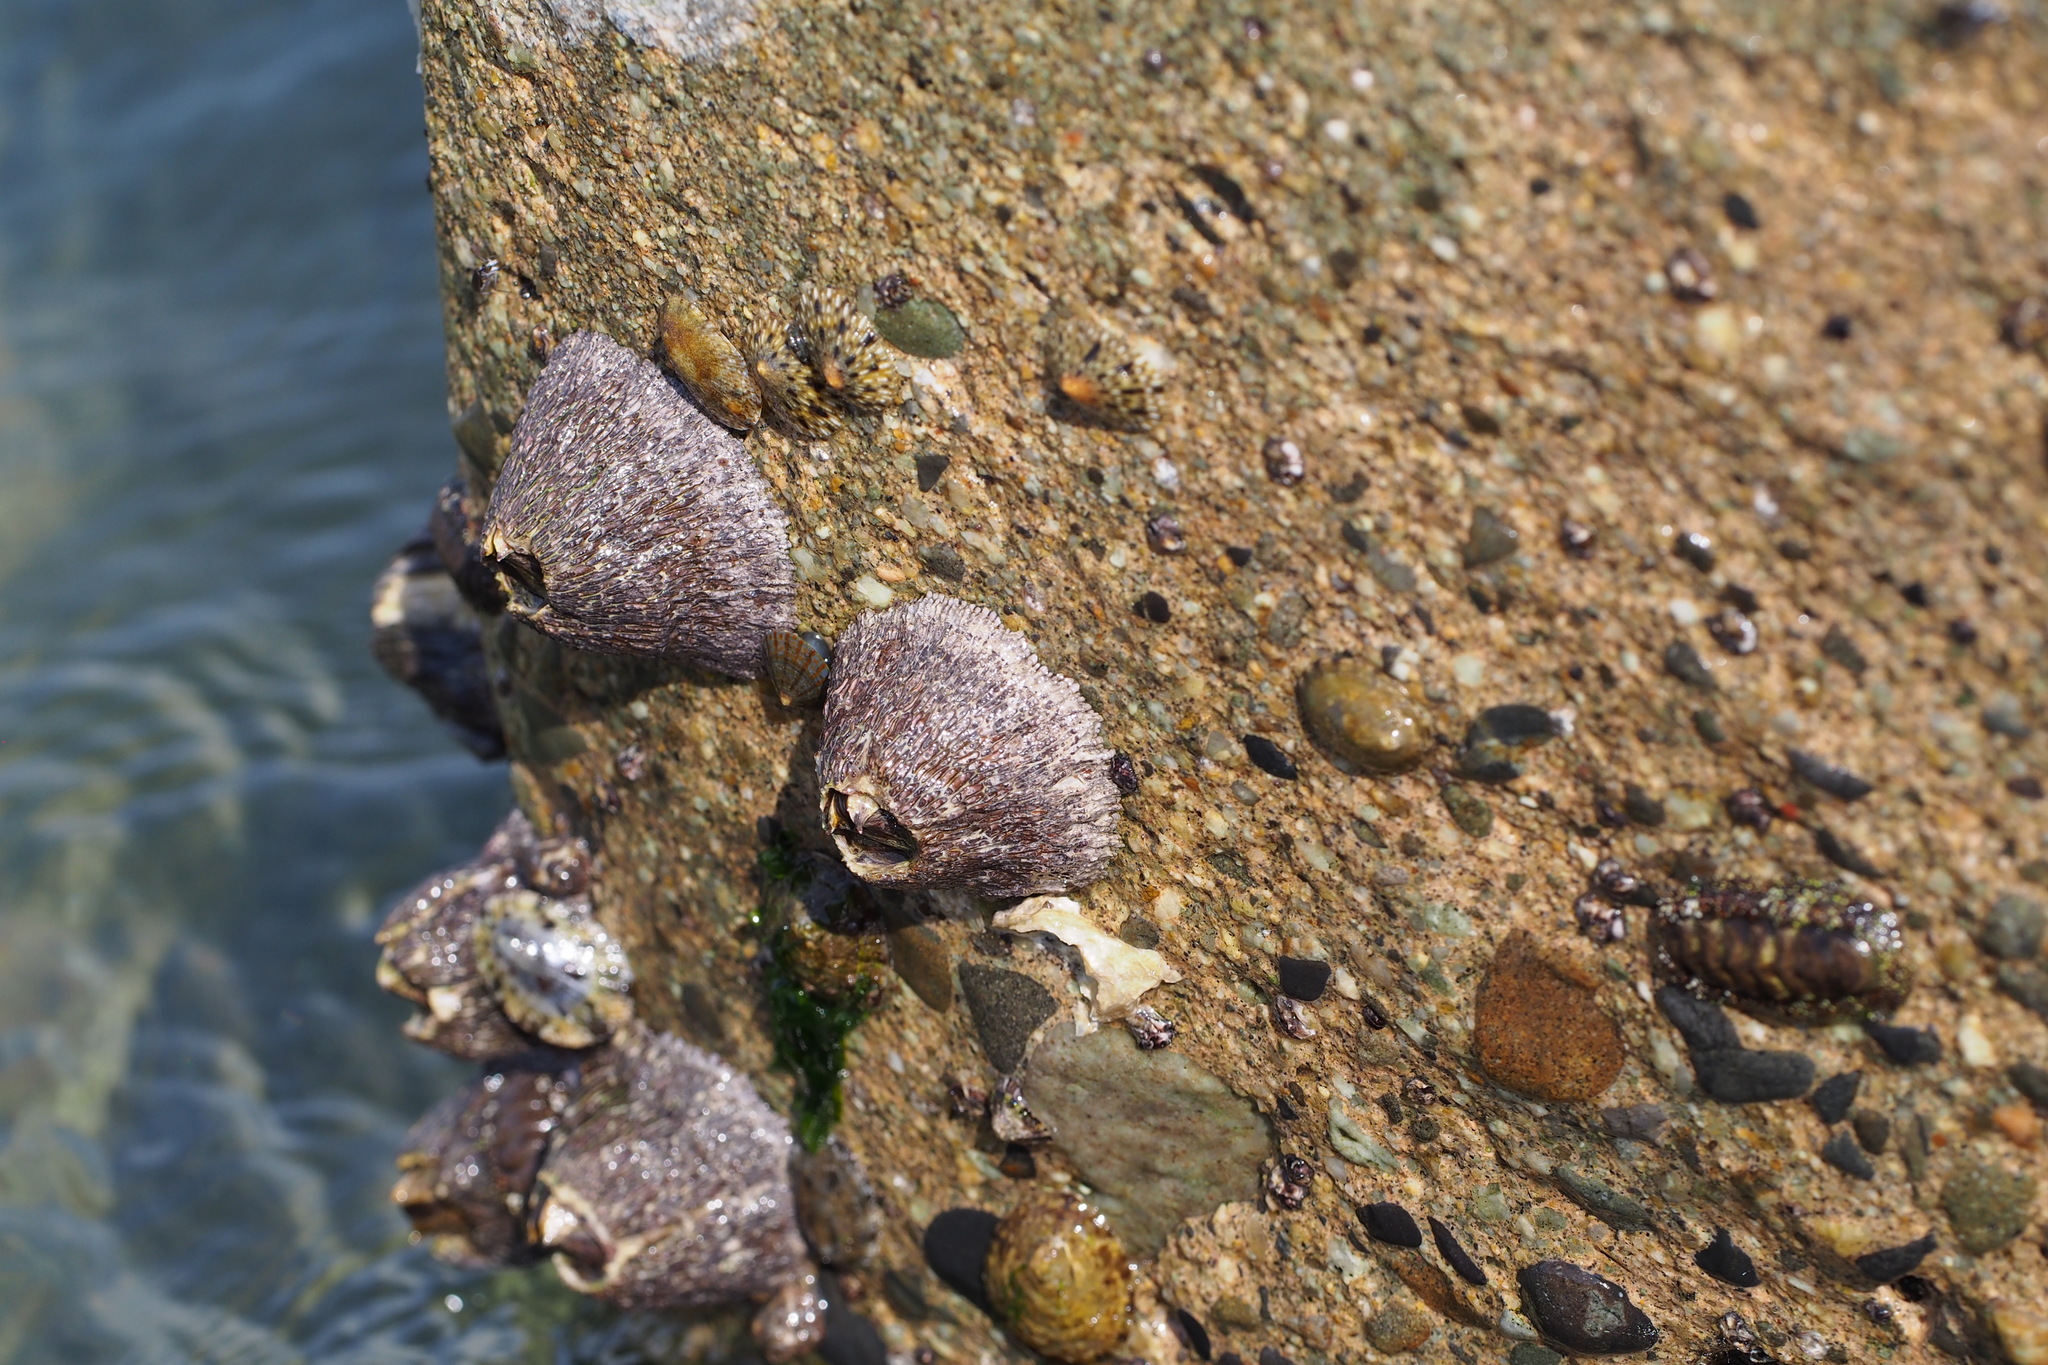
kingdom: Animalia
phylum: Arthropoda
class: Maxillopoda
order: Sessilia
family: Tetraclitidae
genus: Tetraclita
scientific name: Tetraclita japonica
